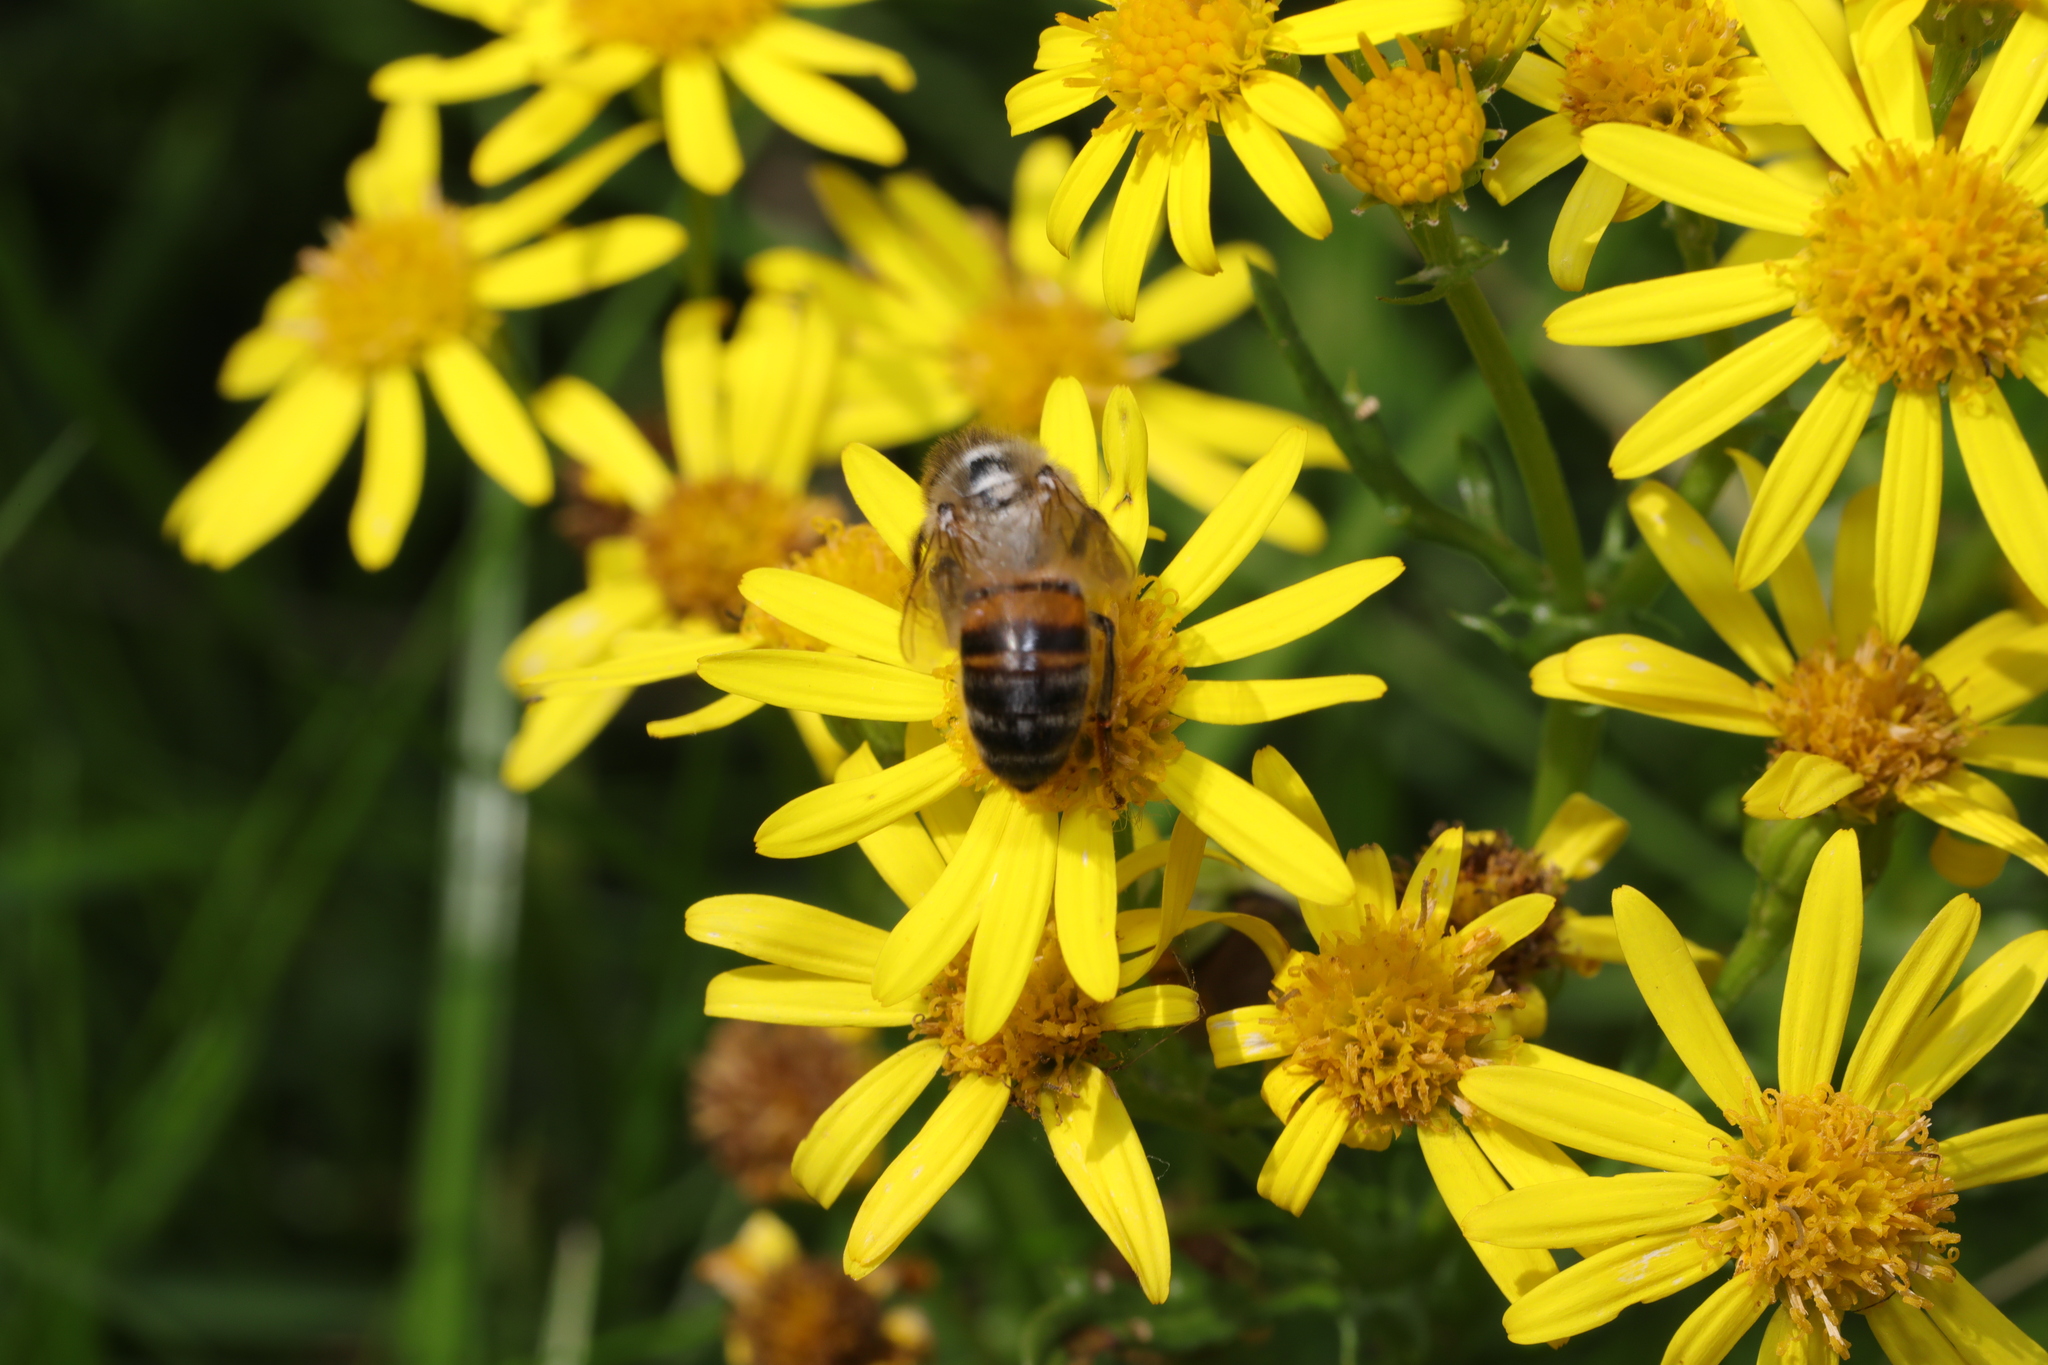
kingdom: Animalia
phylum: Arthropoda
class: Insecta
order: Hymenoptera
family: Apidae
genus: Apis
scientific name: Apis mellifera
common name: Honey bee
